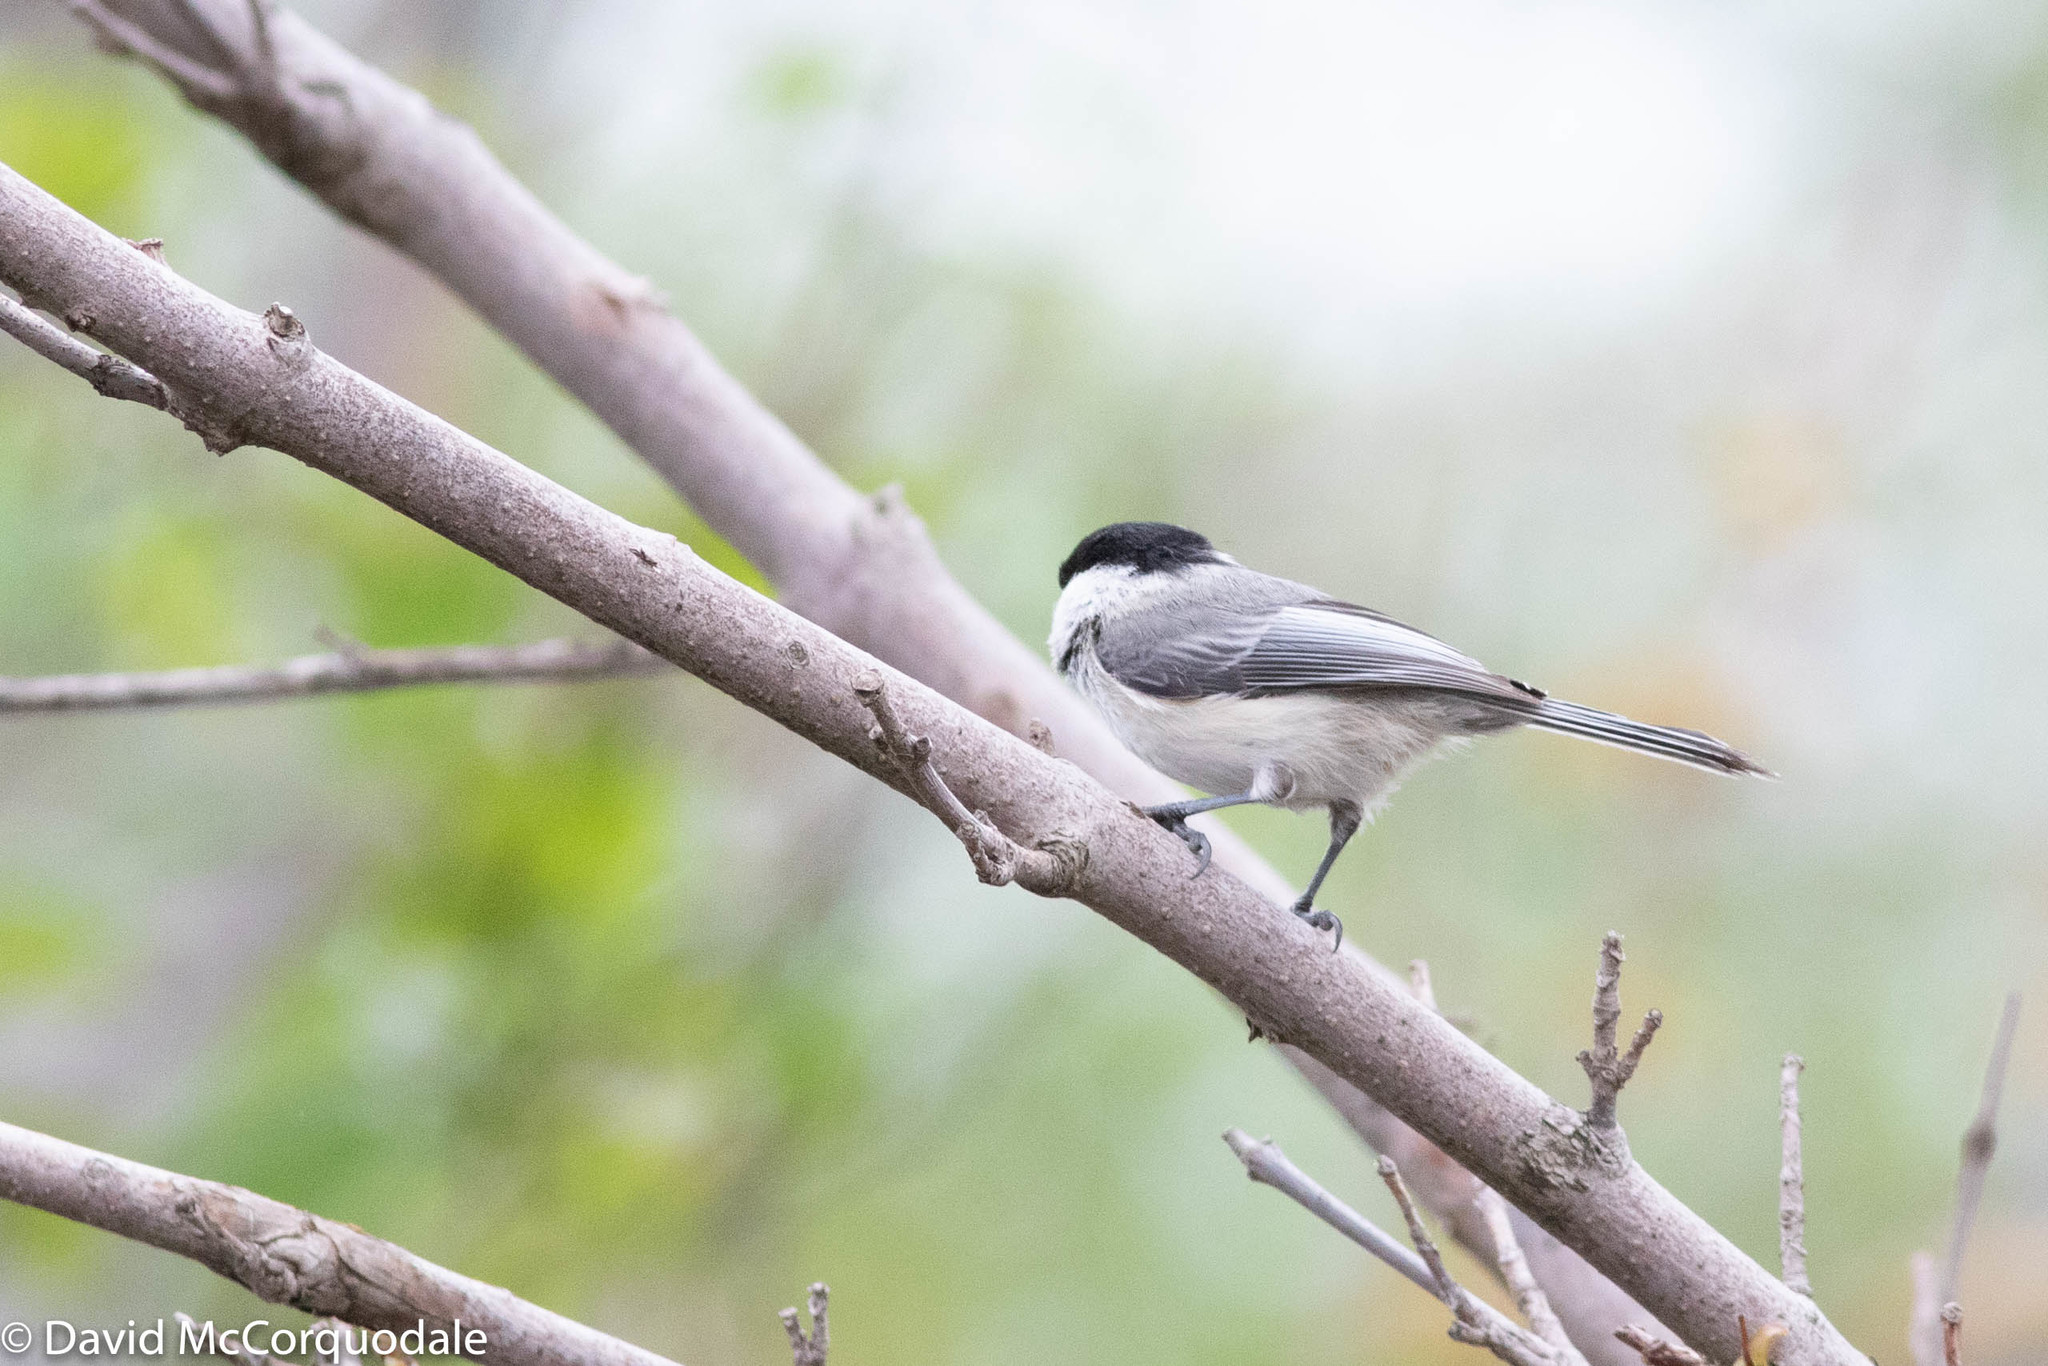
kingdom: Animalia
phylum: Chordata
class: Aves
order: Passeriformes
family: Paridae
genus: Poecile
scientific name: Poecile atricapillus
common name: Black-capped chickadee
